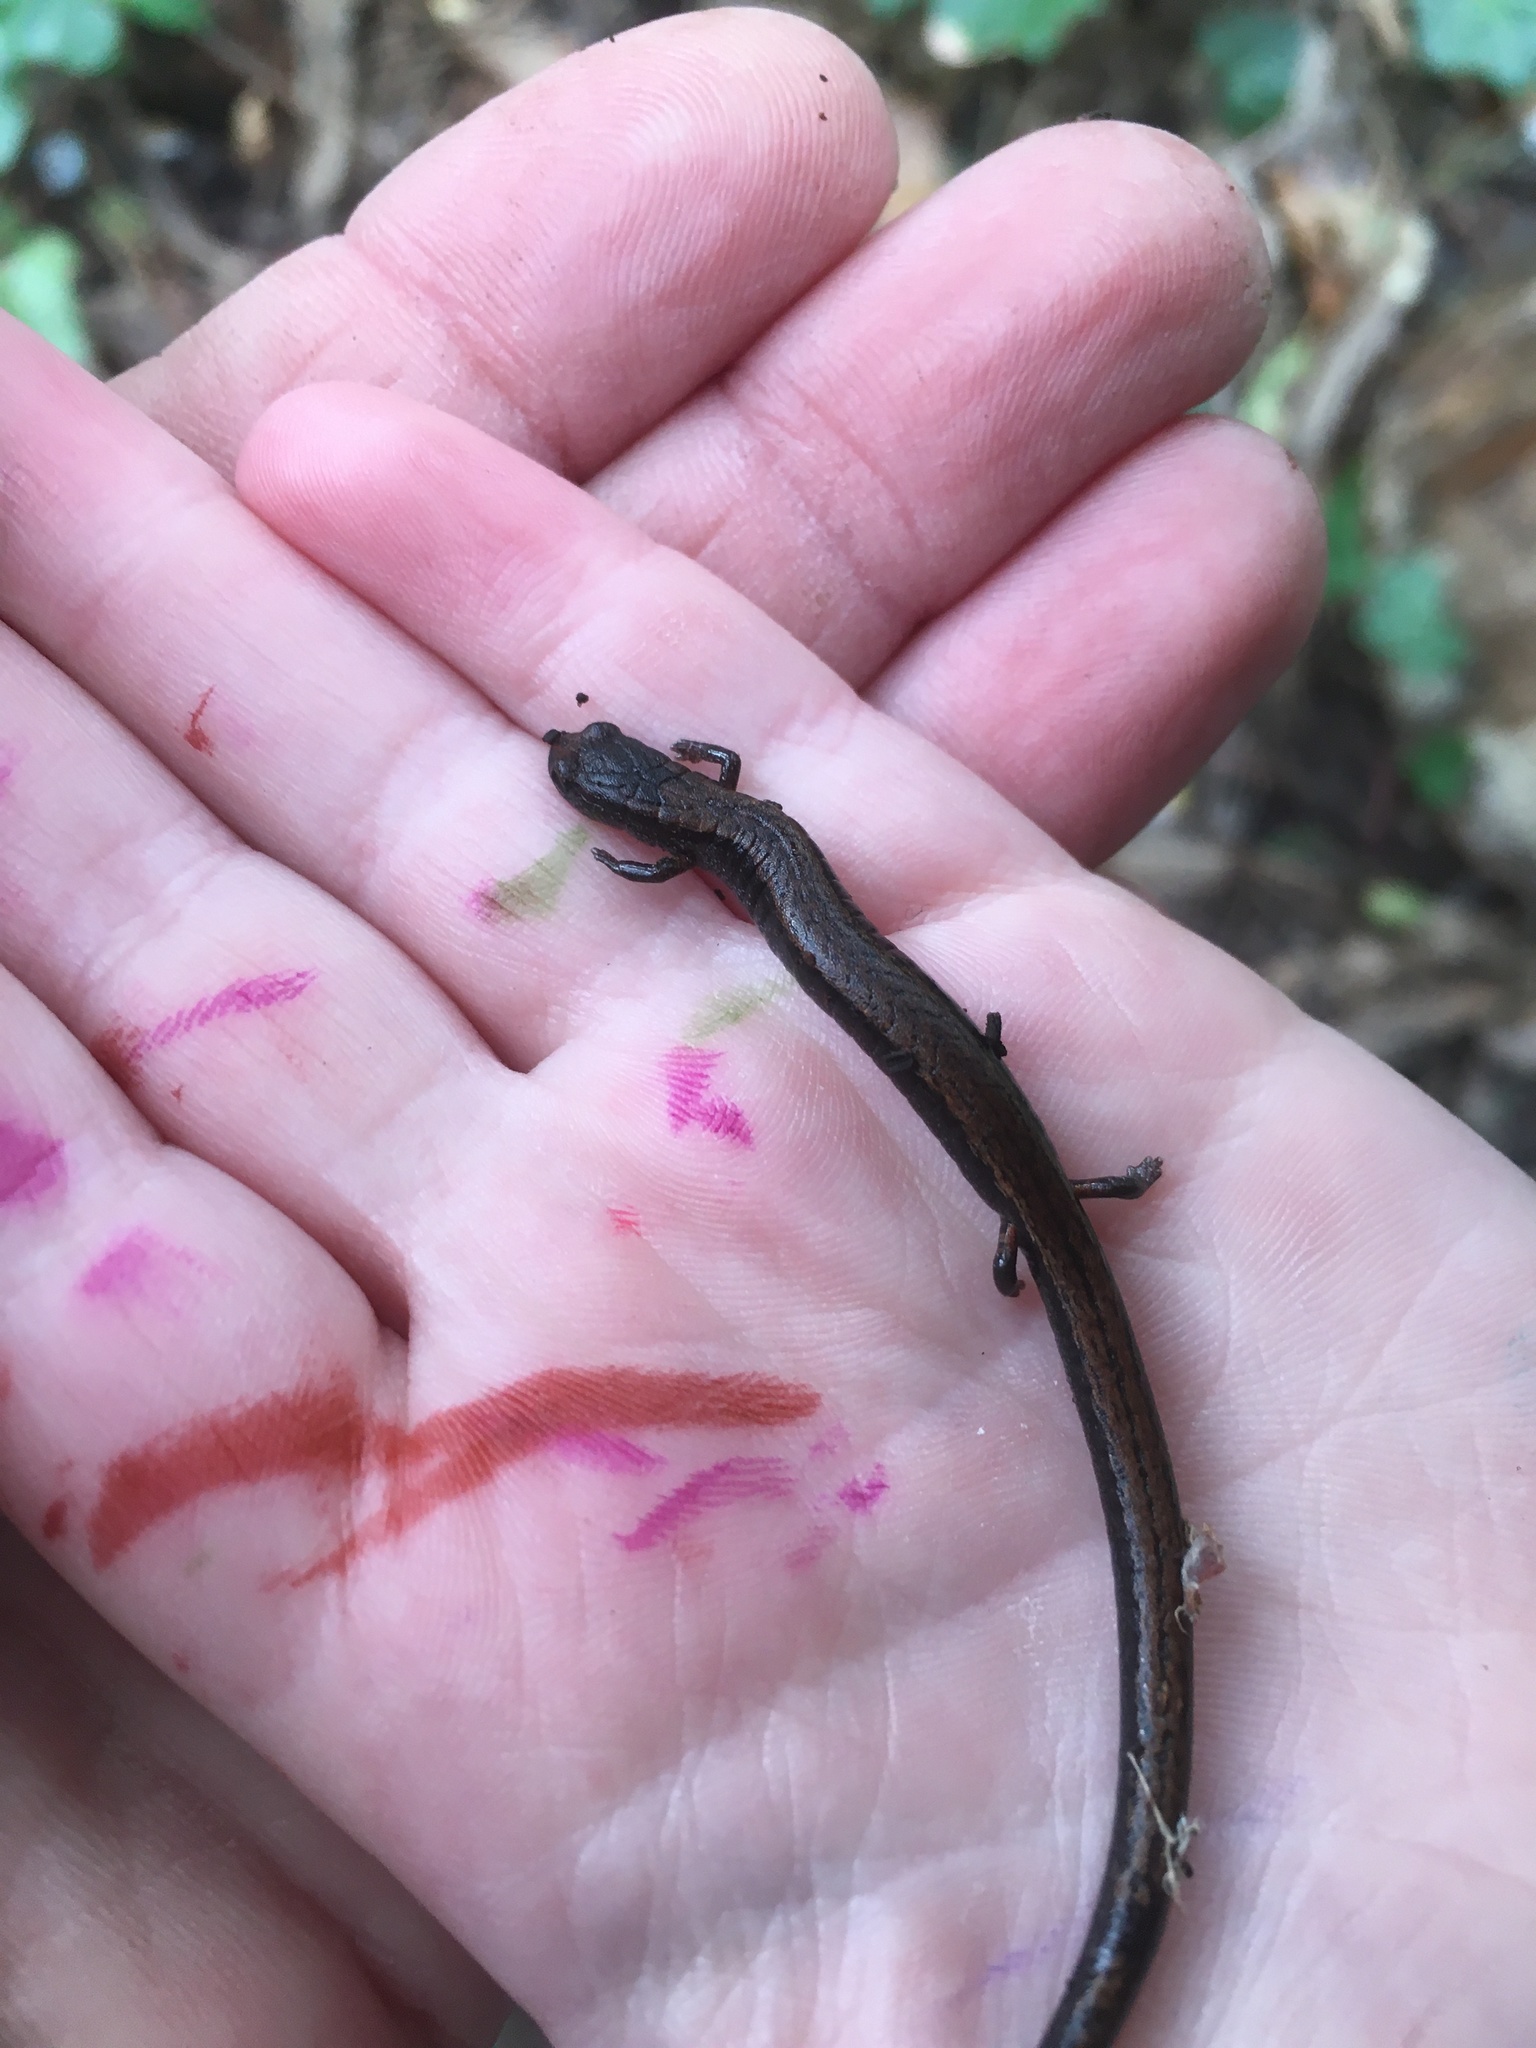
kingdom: Animalia
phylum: Chordata
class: Amphibia
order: Caudata
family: Plethodontidae
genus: Batrachoseps
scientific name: Batrachoseps attenuatus
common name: California slender salamander
